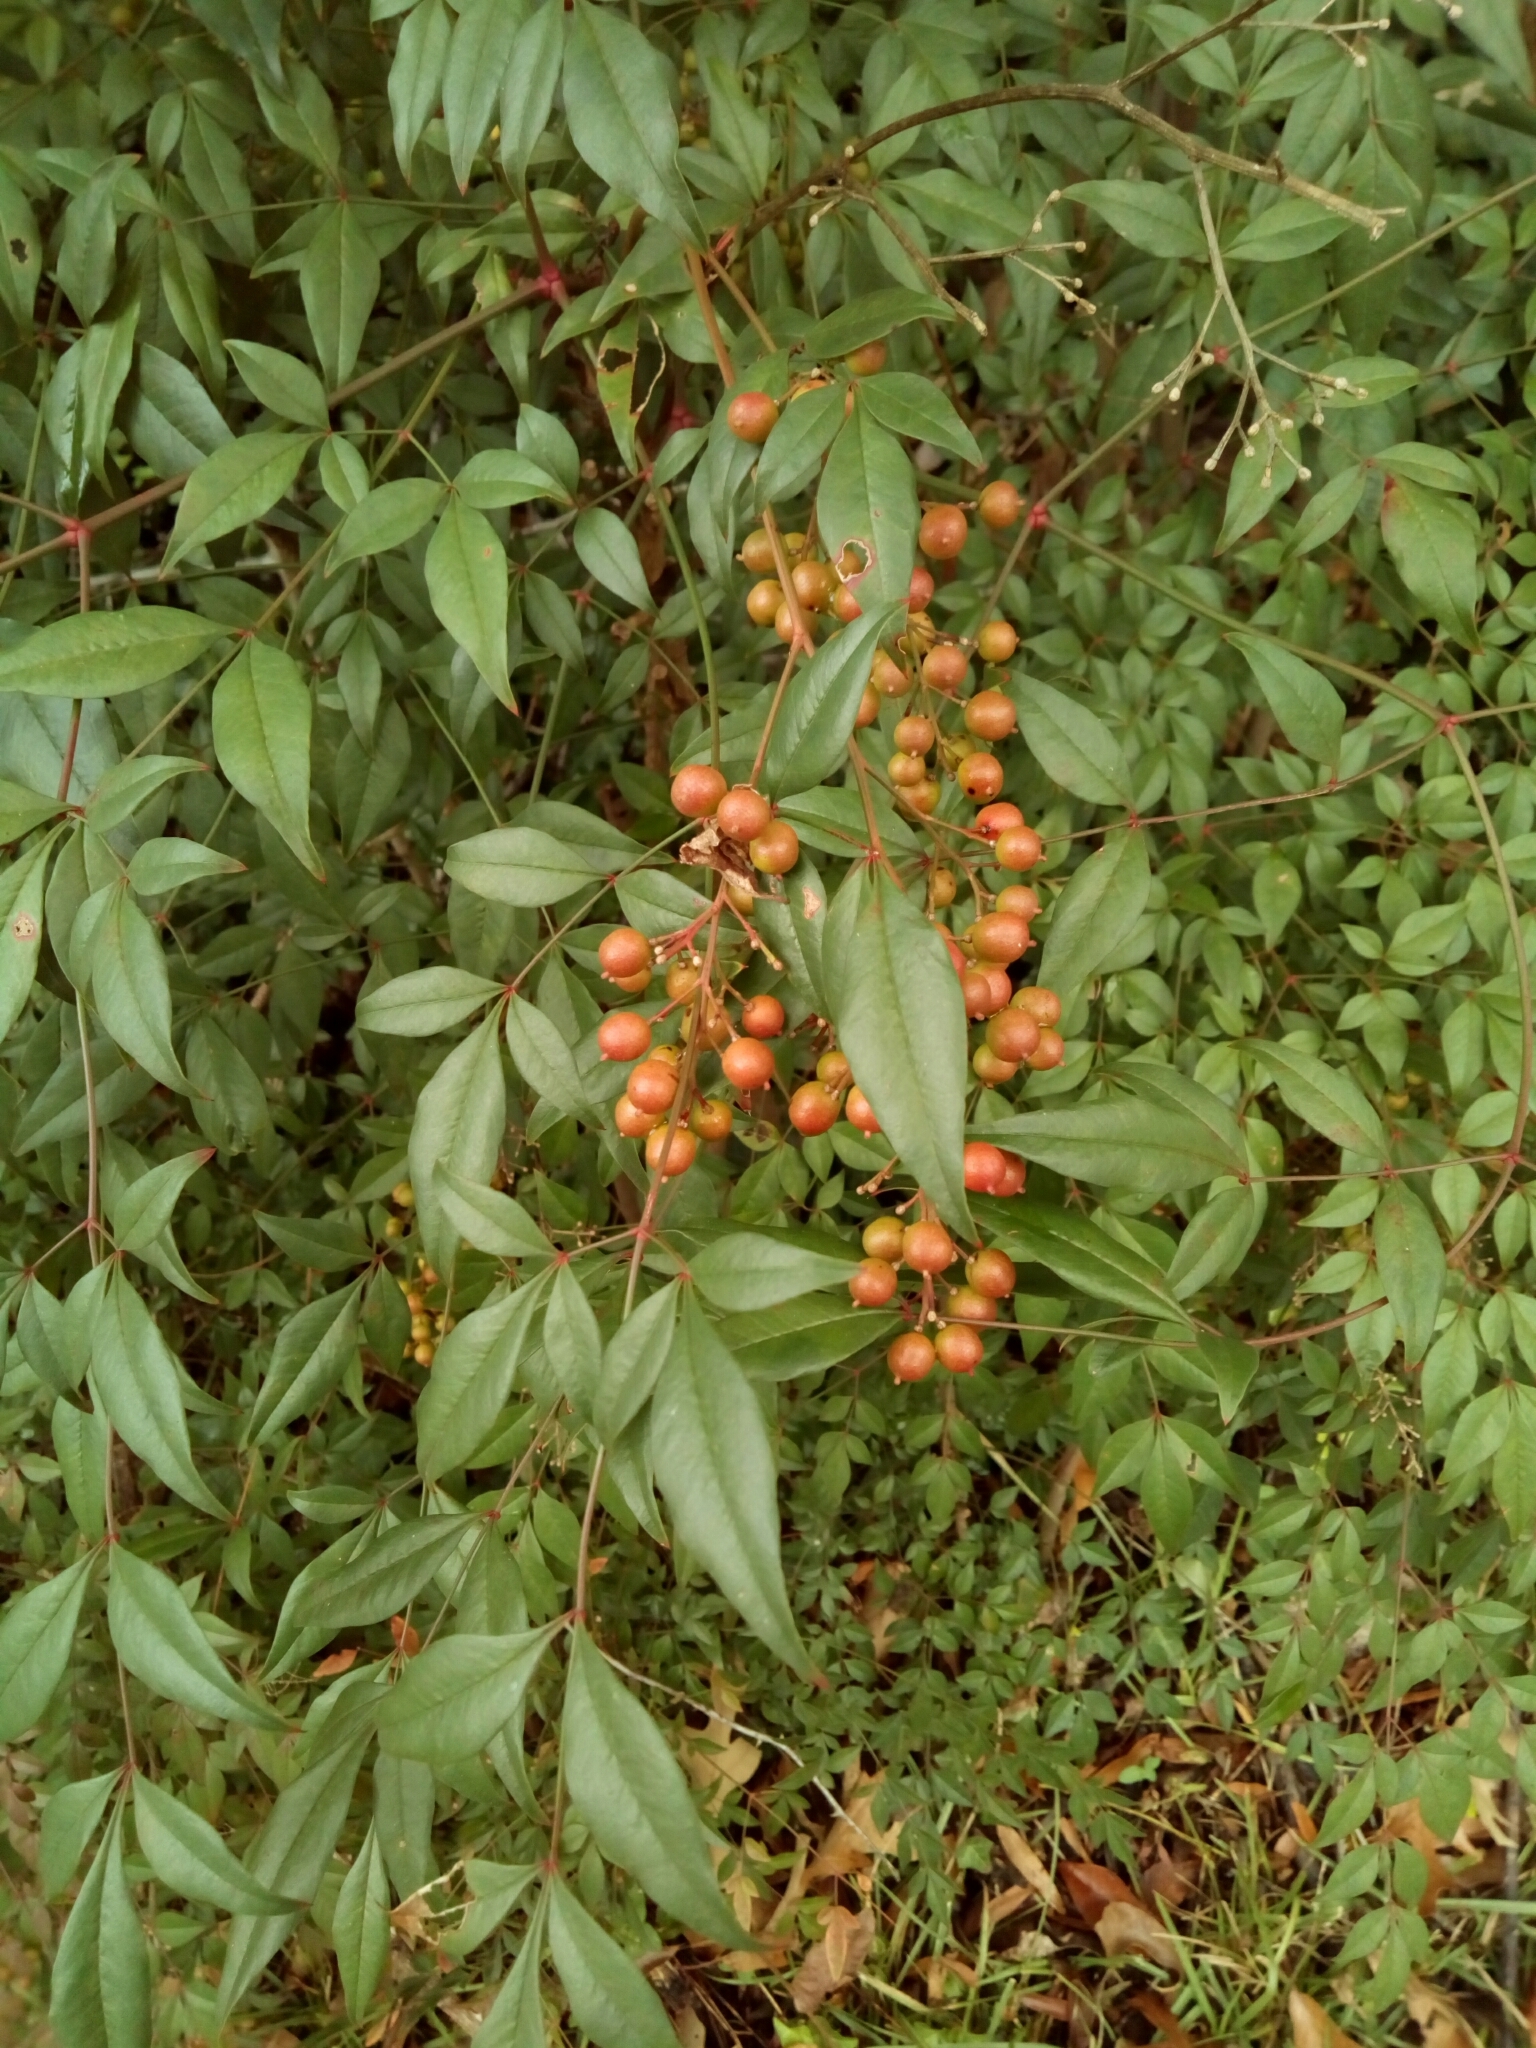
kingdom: Plantae
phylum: Tracheophyta
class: Magnoliopsida
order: Ranunculales
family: Berberidaceae
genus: Nandina
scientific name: Nandina domestica
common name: Sacred bamboo
